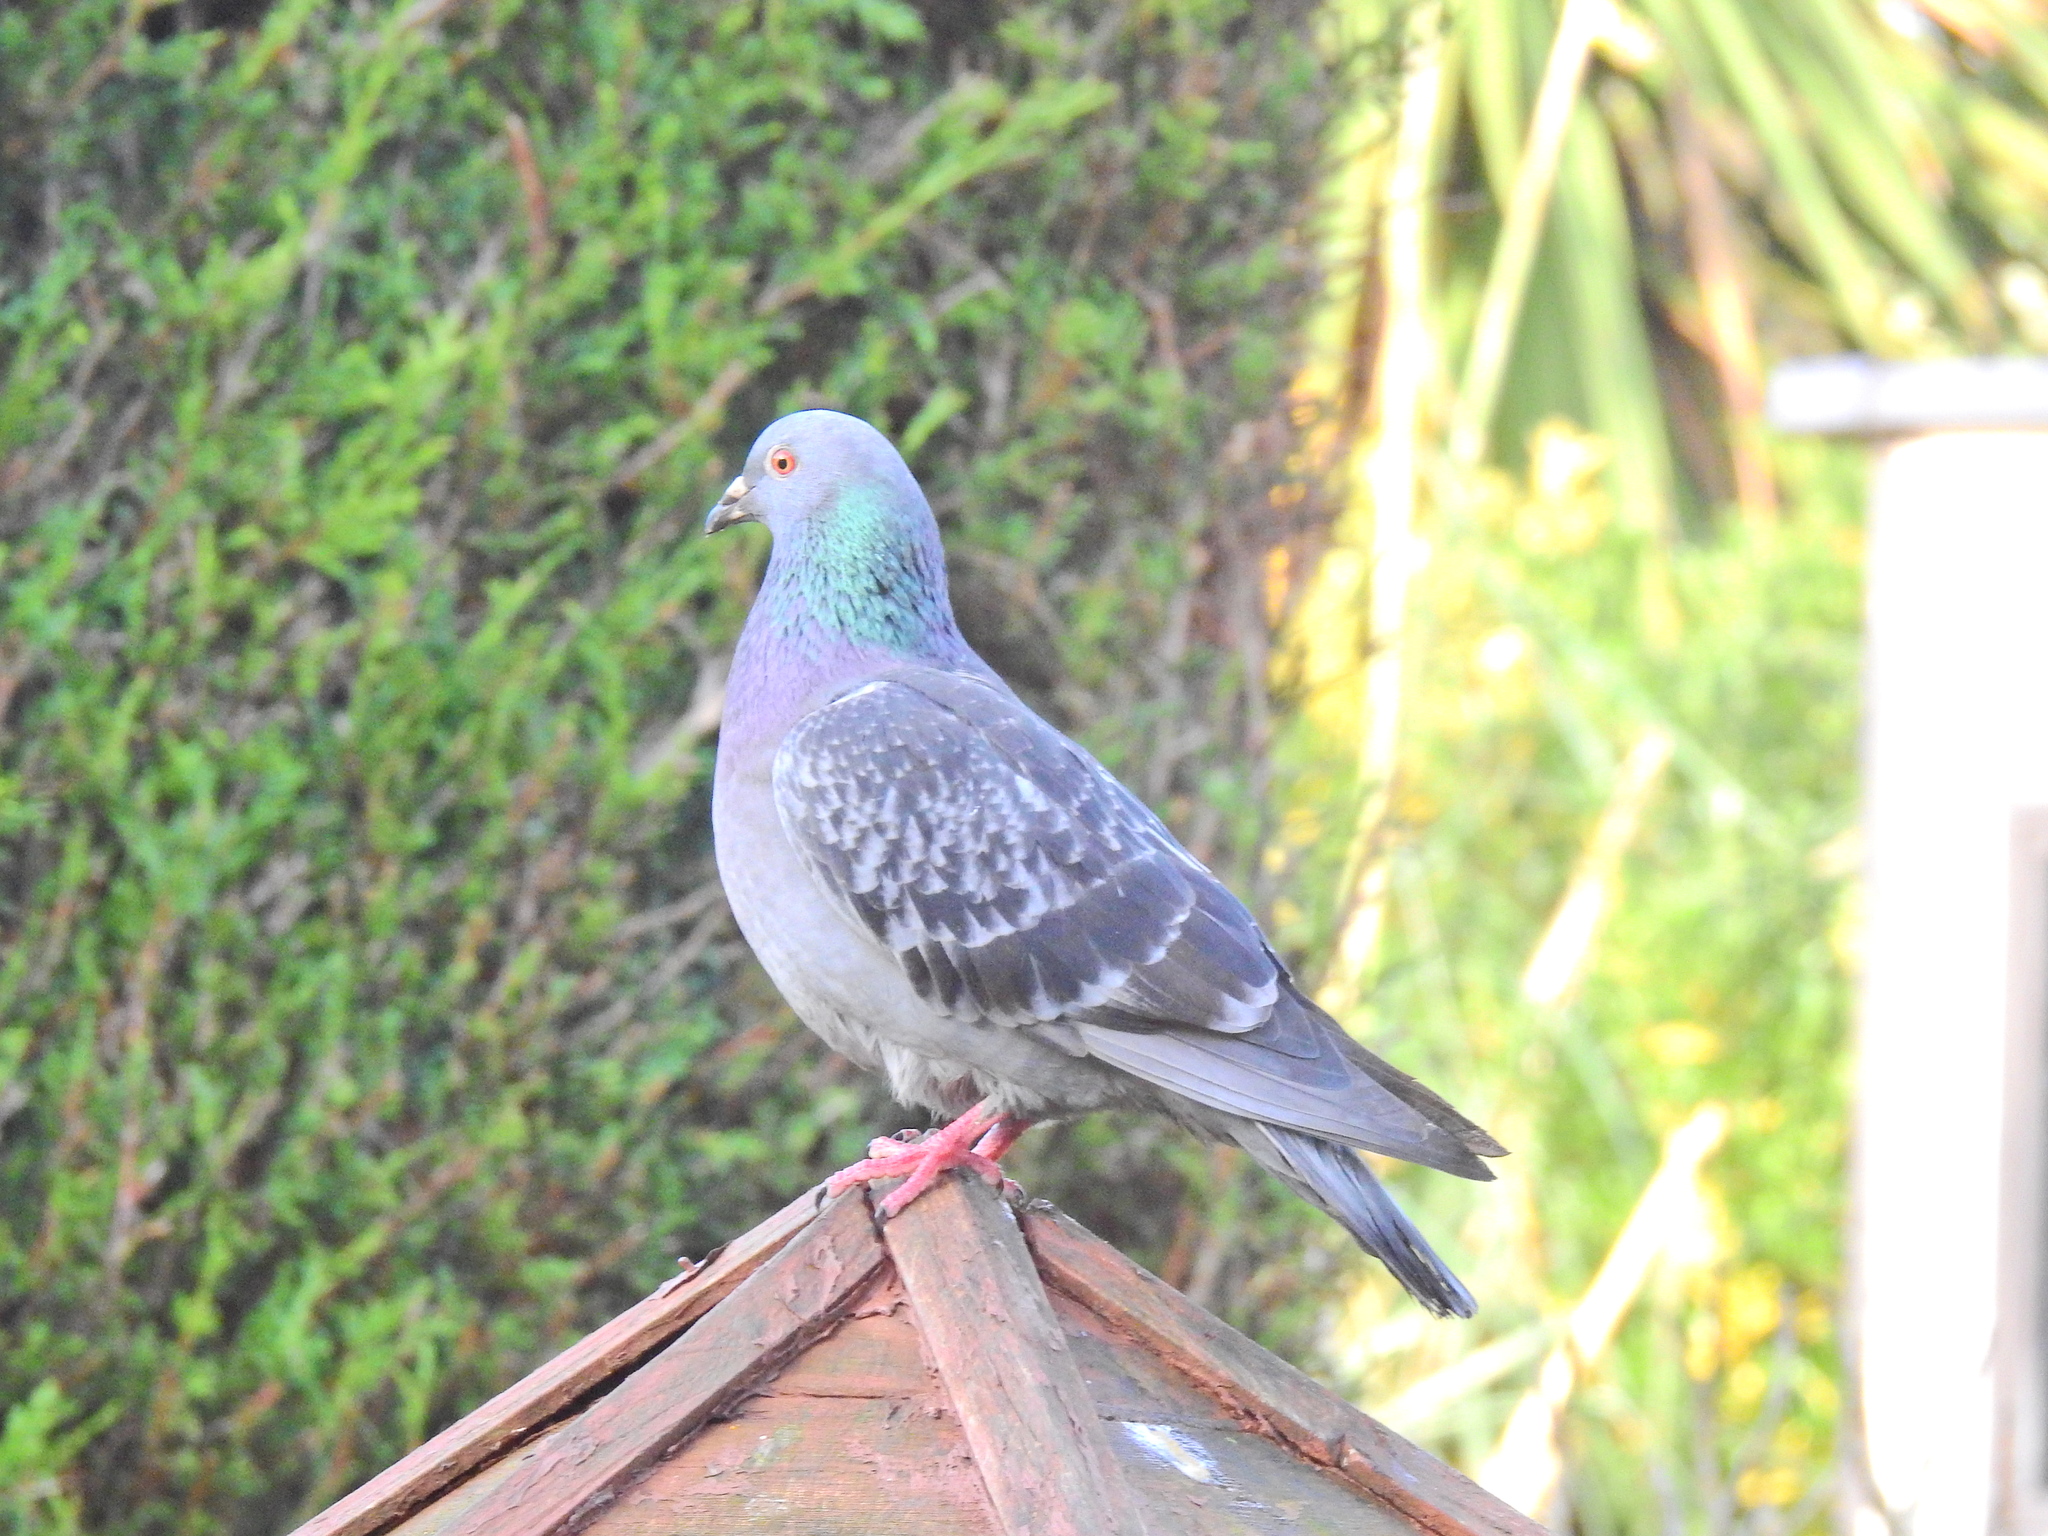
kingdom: Animalia
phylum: Chordata
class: Aves
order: Columbiformes
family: Columbidae
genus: Columba
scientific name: Columba livia
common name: Rock pigeon
